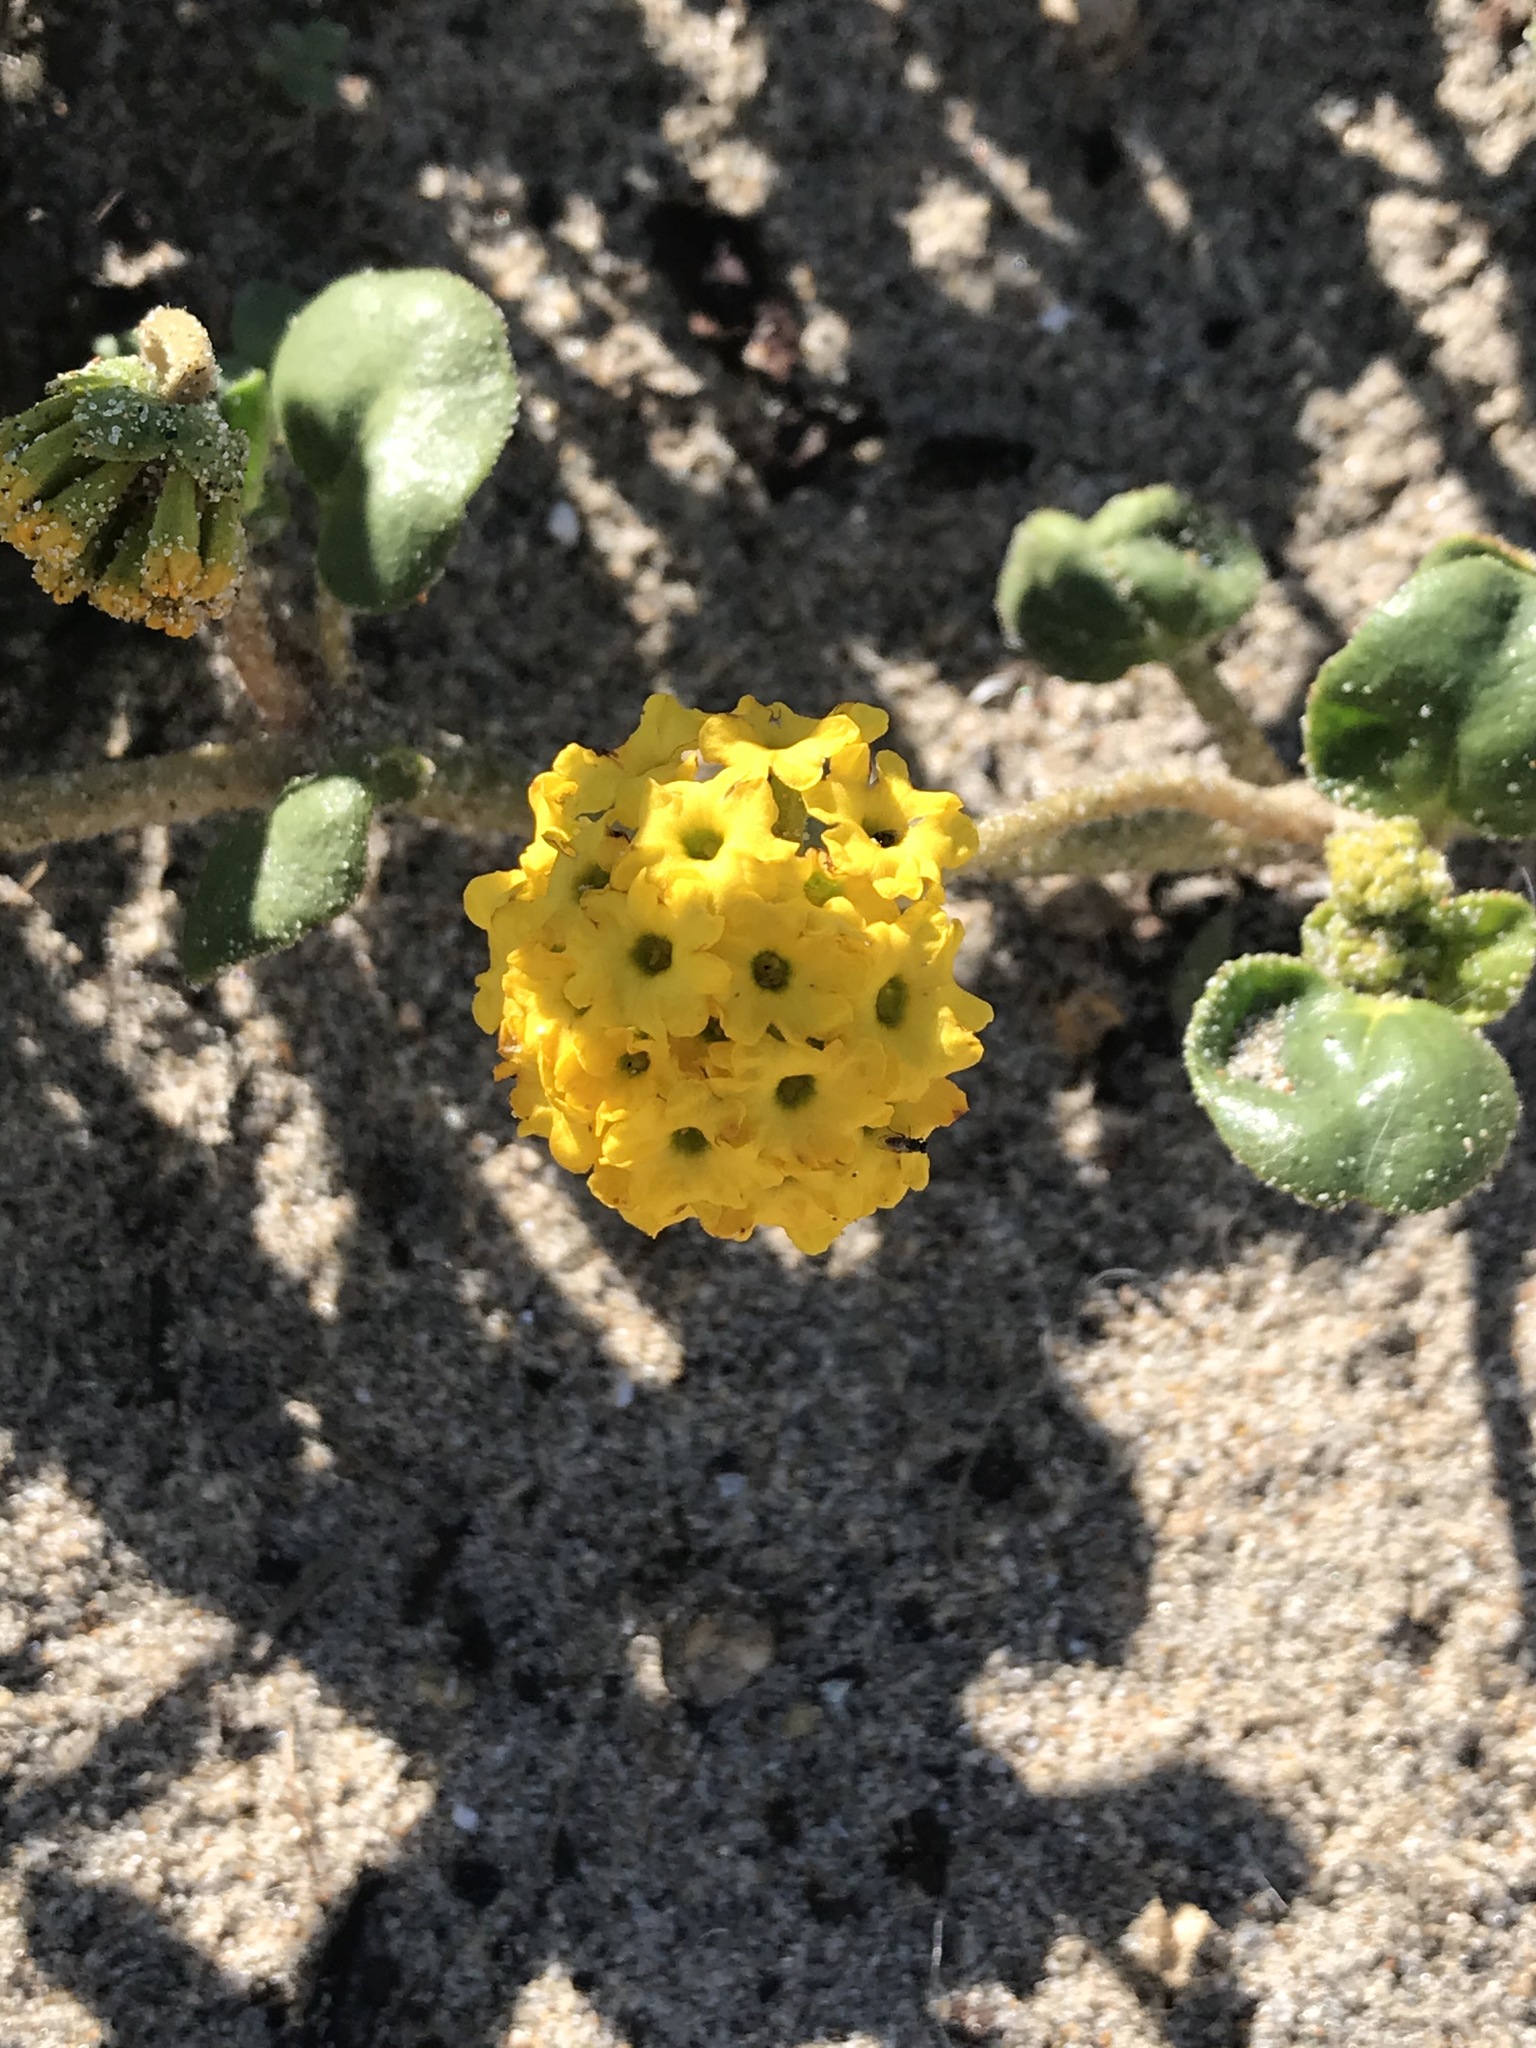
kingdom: Plantae
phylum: Tracheophyta
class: Magnoliopsida
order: Caryophyllales
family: Nyctaginaceae
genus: Abronia
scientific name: Abronia latifolia
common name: Yellow sand-verbena
